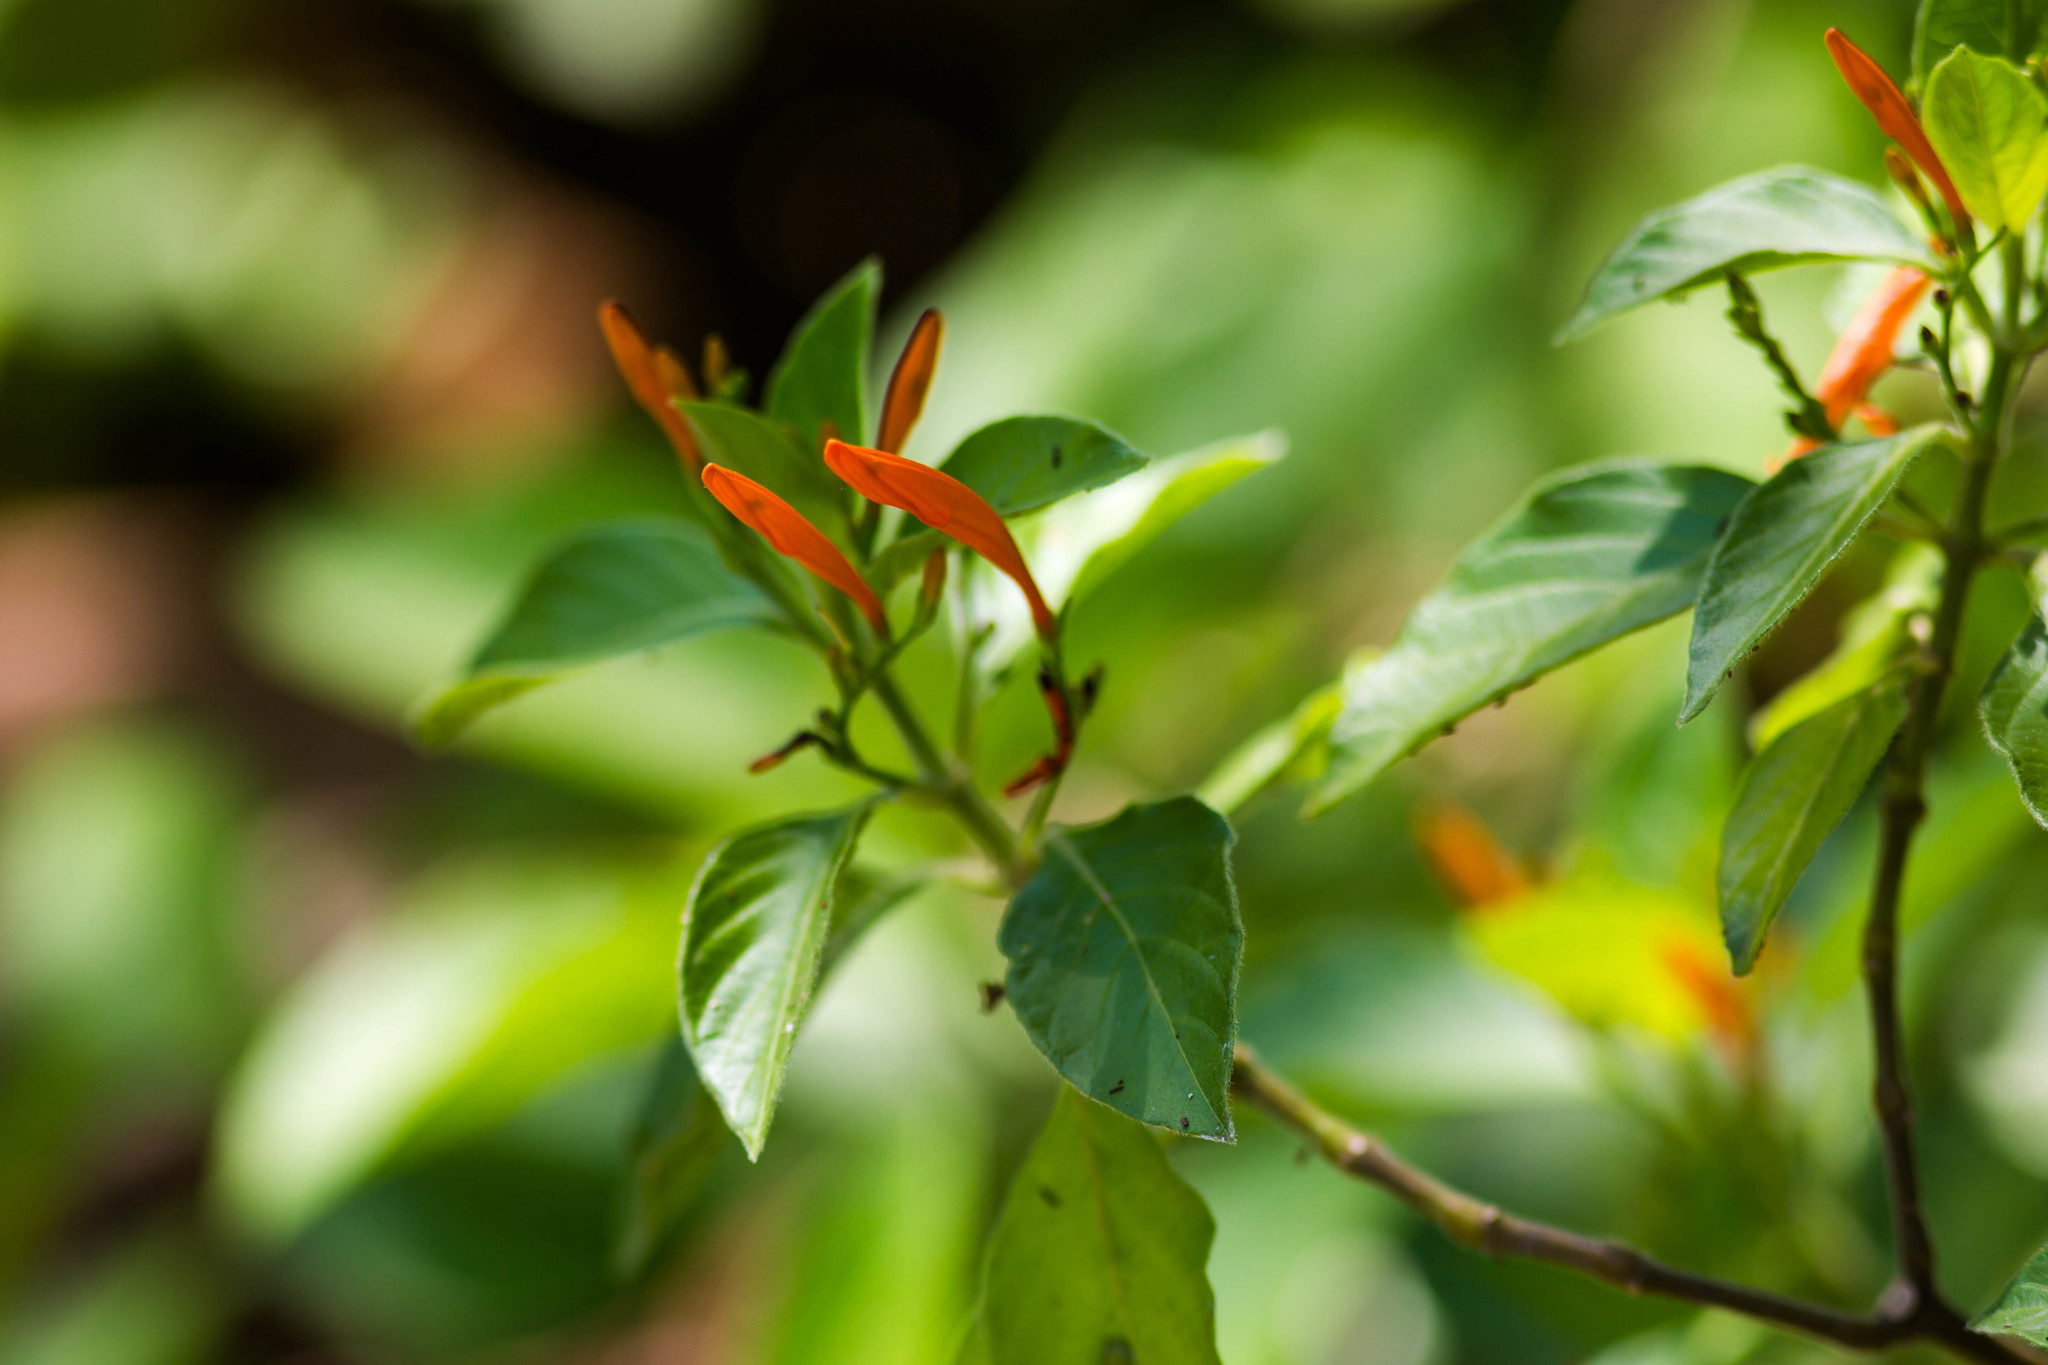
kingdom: Plantae
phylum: Tracheophyta
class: Magnoliopsida
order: Lamiales
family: Acanthaceae
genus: Justicia
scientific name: Justicia spicigera
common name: Mohintli
